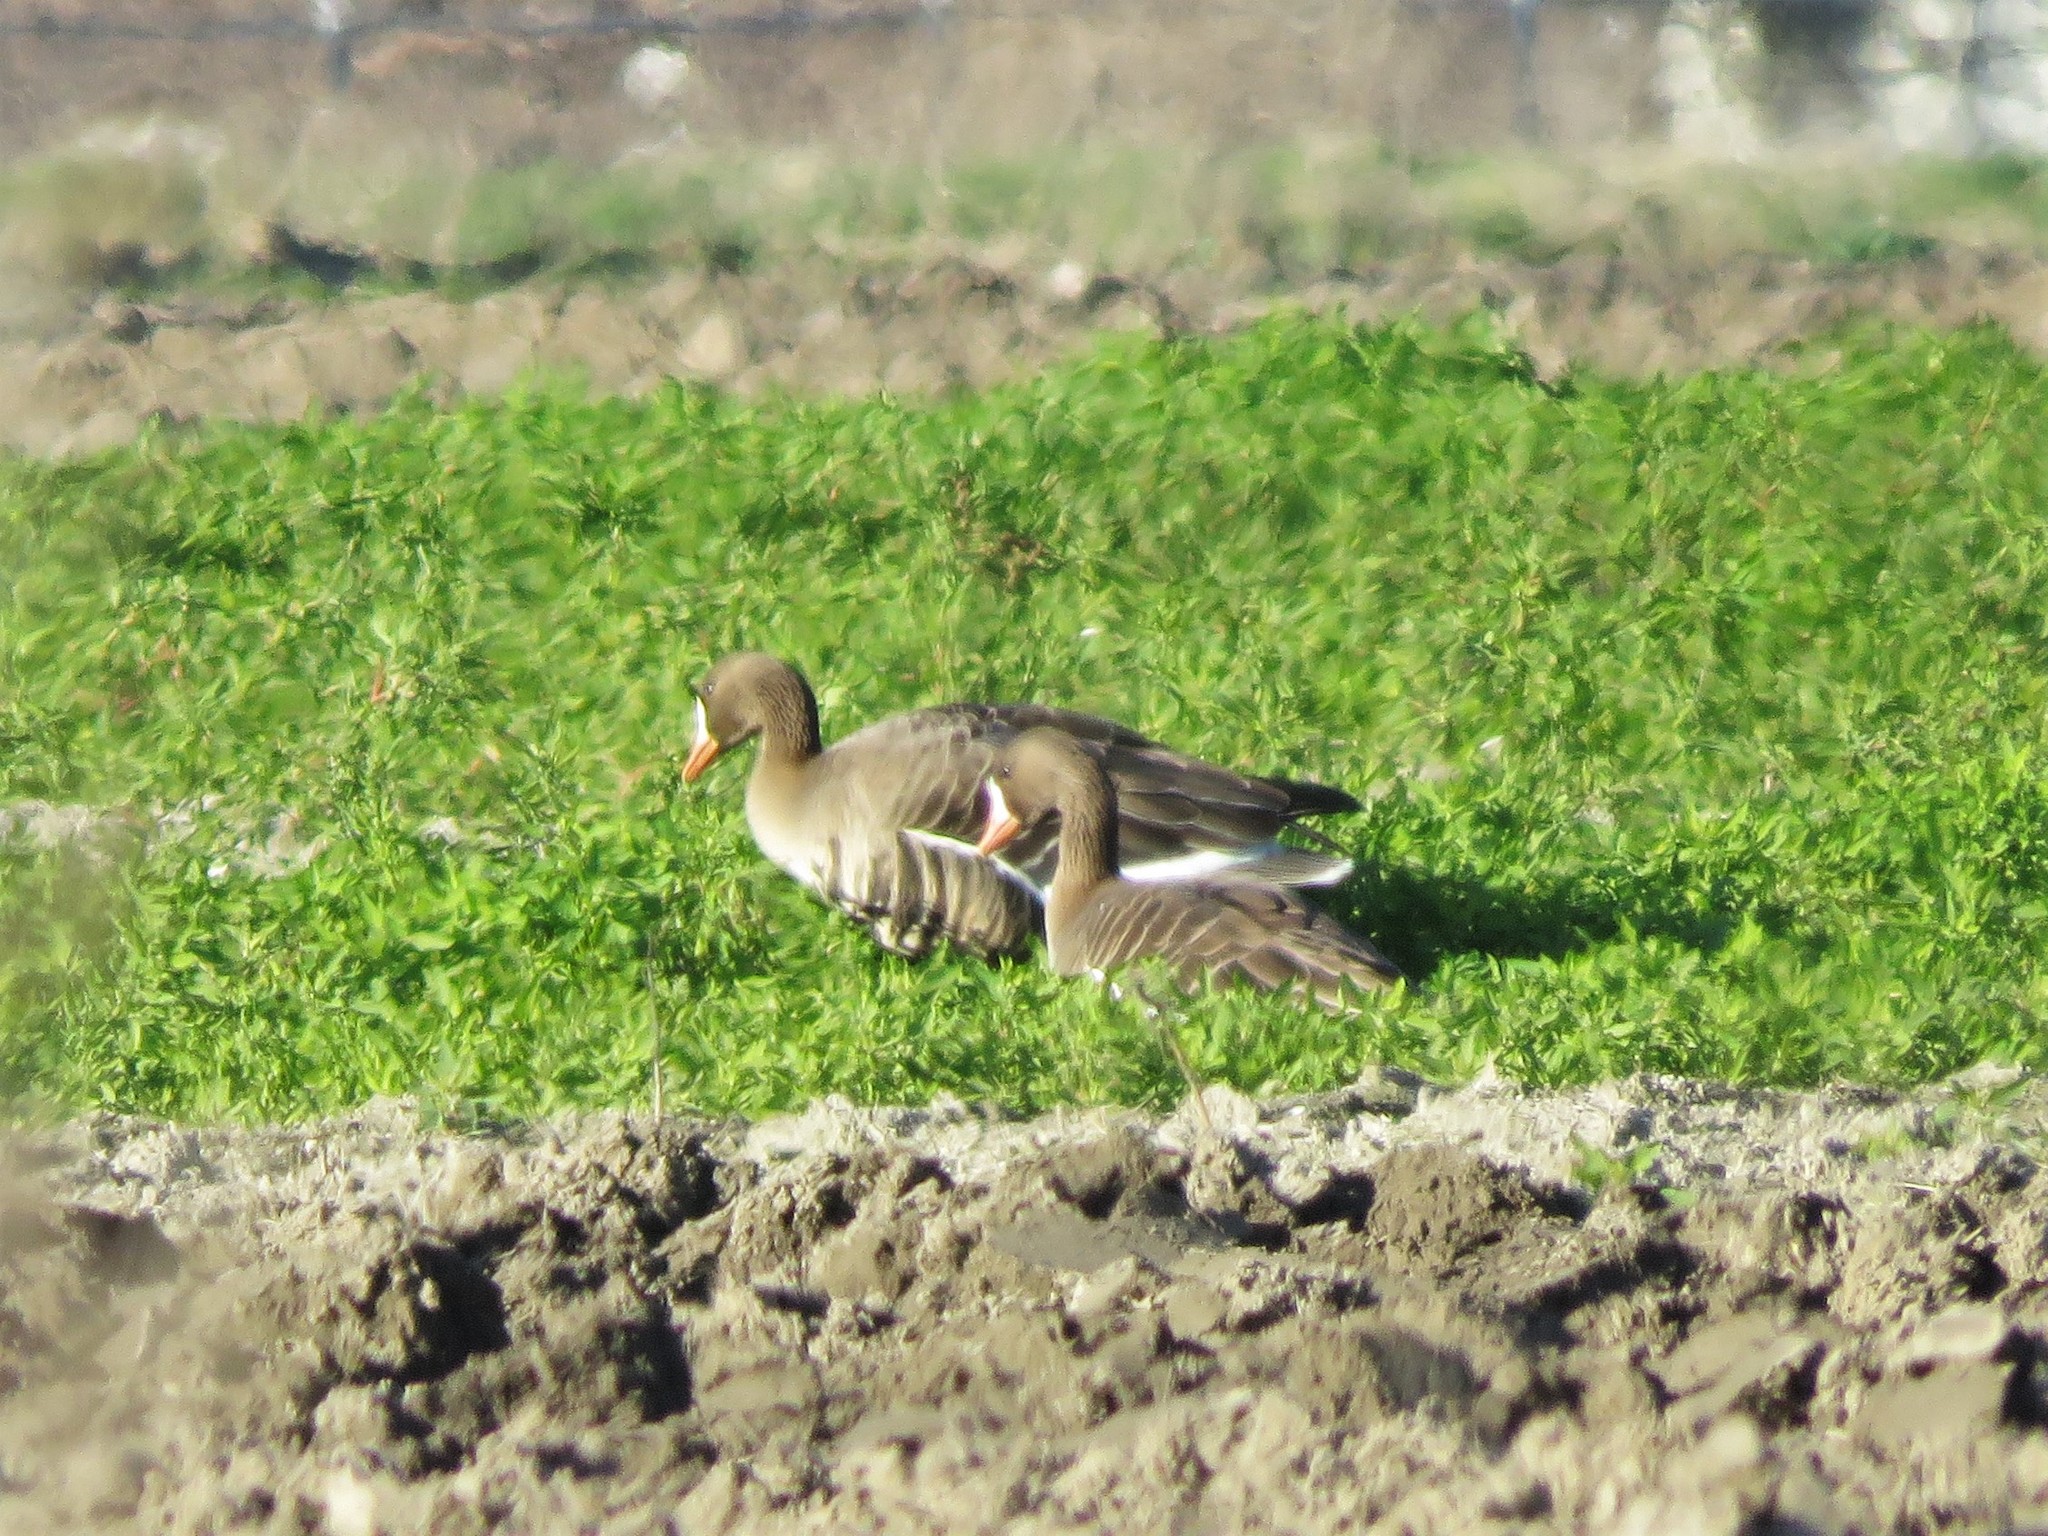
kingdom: Animalia
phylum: Chordata
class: Aves
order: Anseriformes
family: Anatidae
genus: Anser
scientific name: Anser albifrons
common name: Greater white-fronted goose
